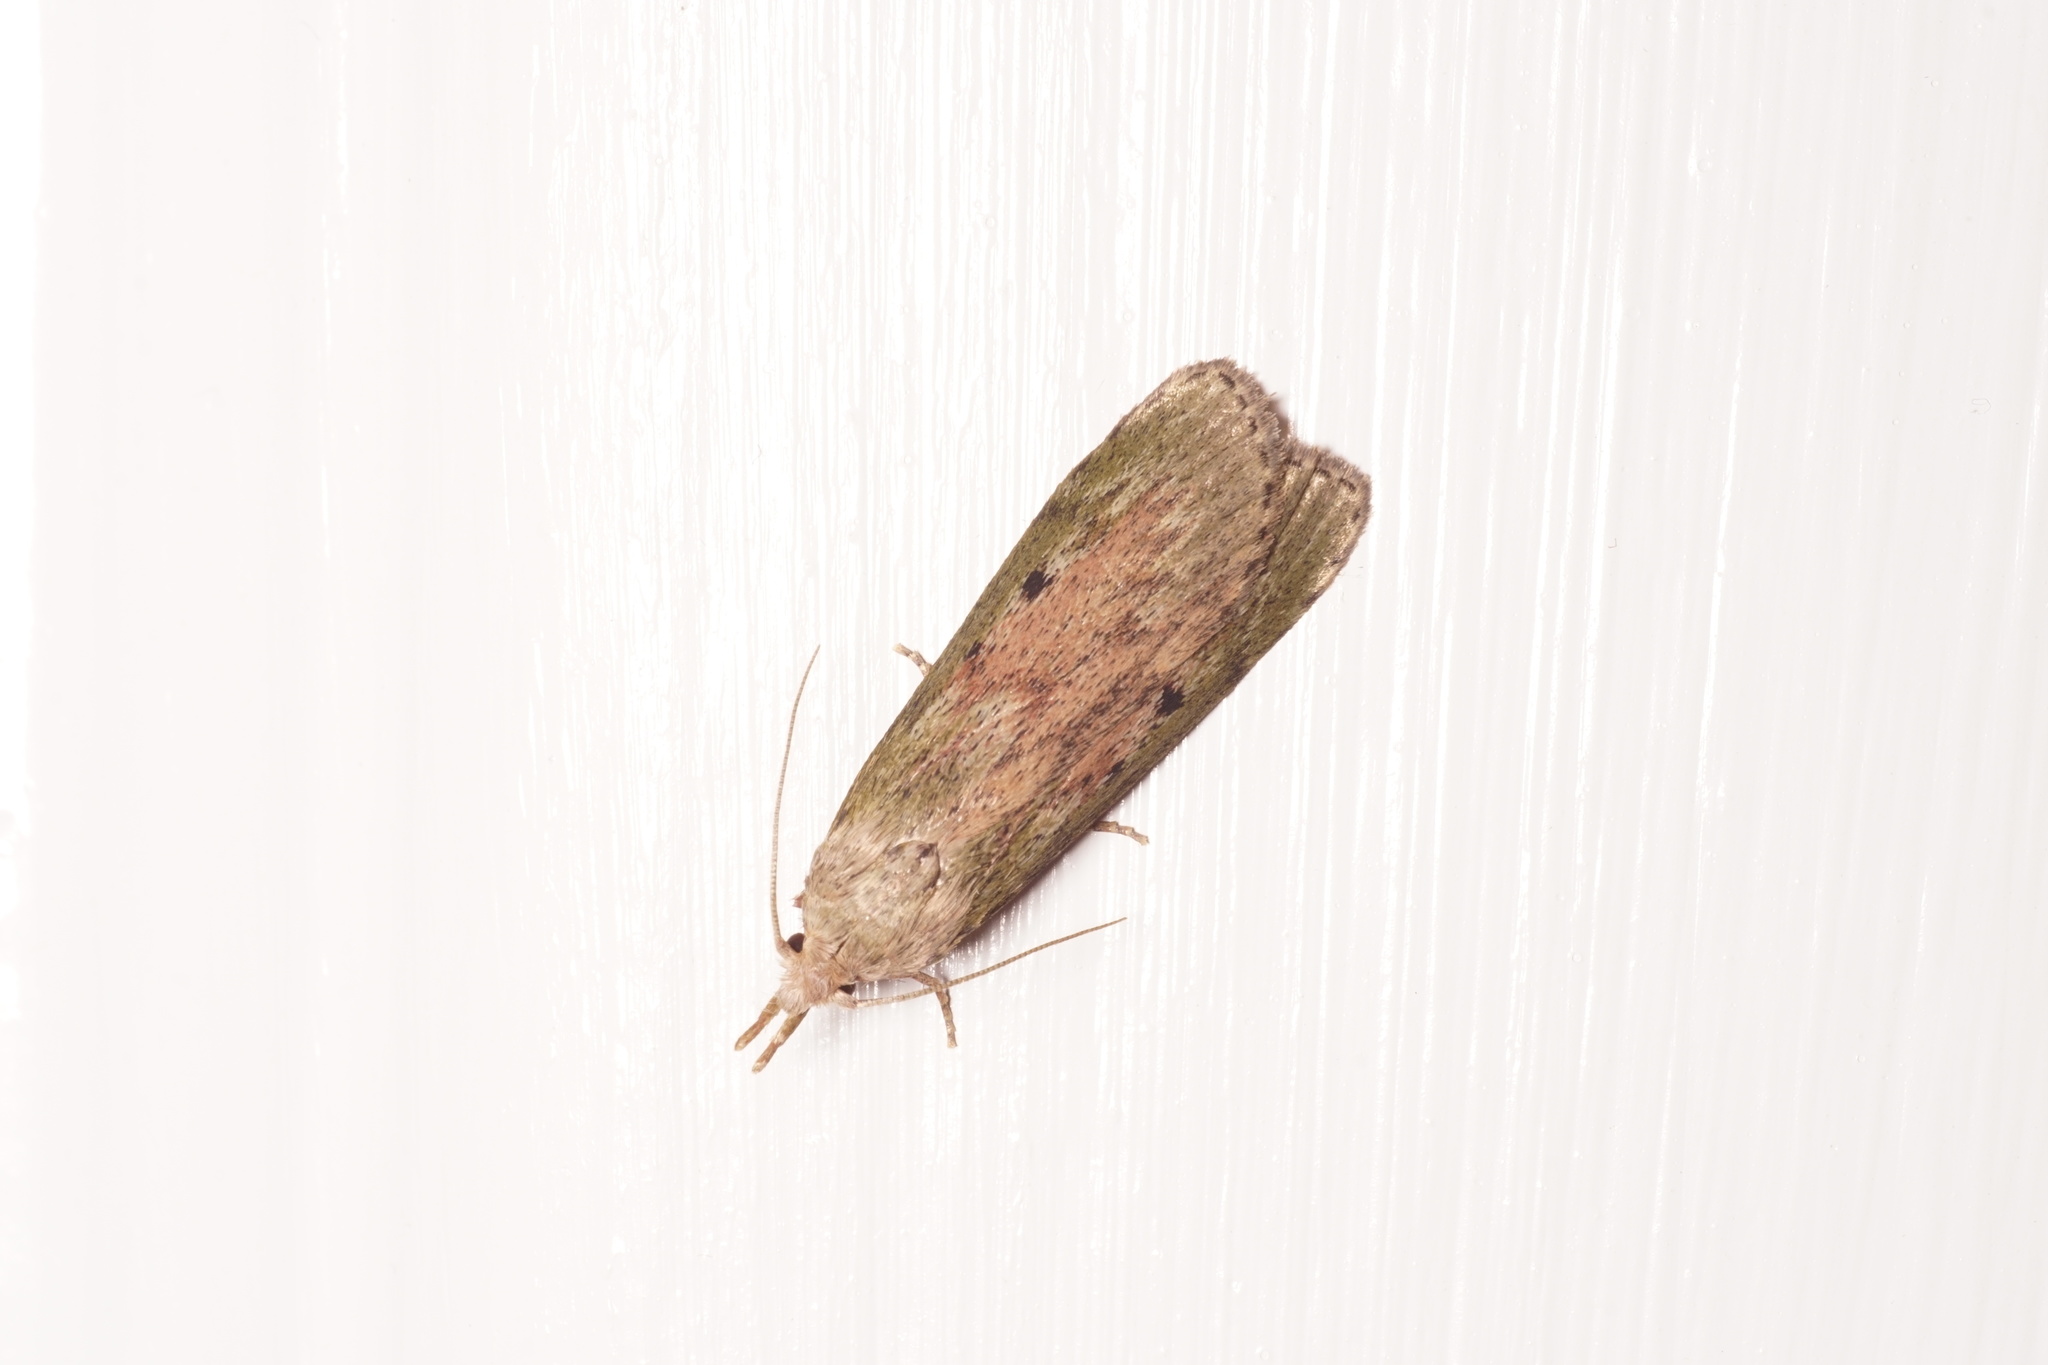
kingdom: Animalia
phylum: Arthropoda
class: Insecta
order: Lepidoptera
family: Pyralidae
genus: Aphomia
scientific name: Aphomia sociella
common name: Bee moth
